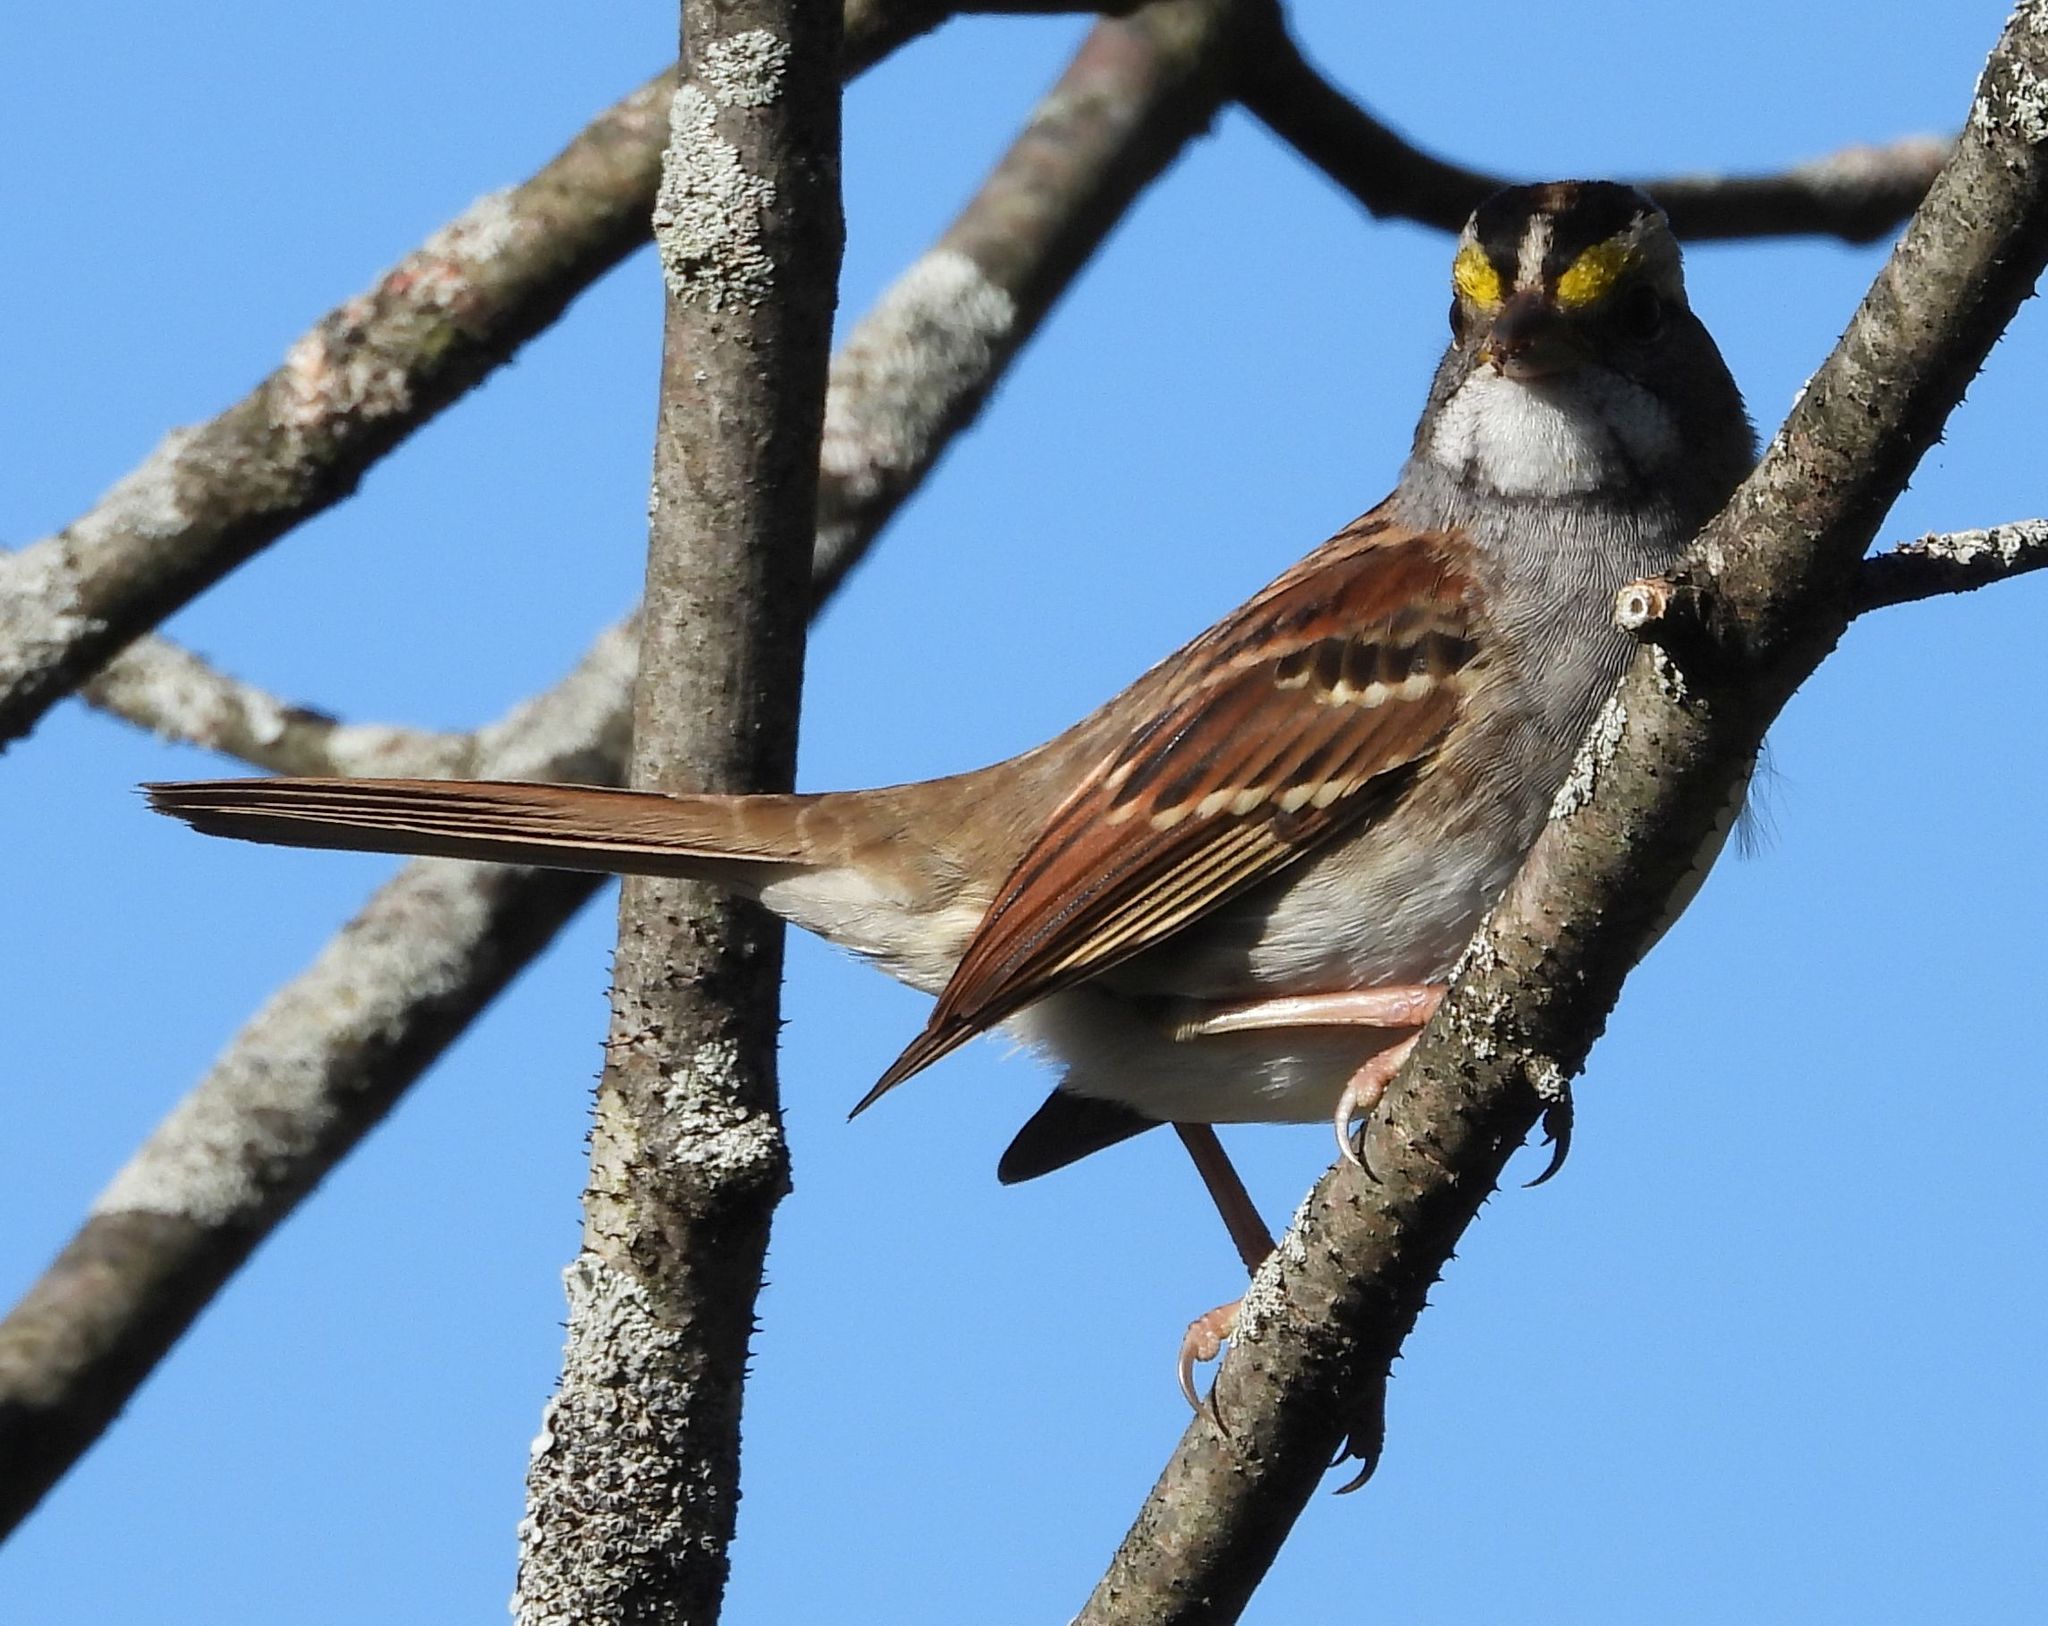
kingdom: Animalia
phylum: Chordata
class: Aves
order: Passeriformes
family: Passerellidae
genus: Zonotrichia
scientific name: Zonotrichia albicollis
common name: White-throated sparrow
